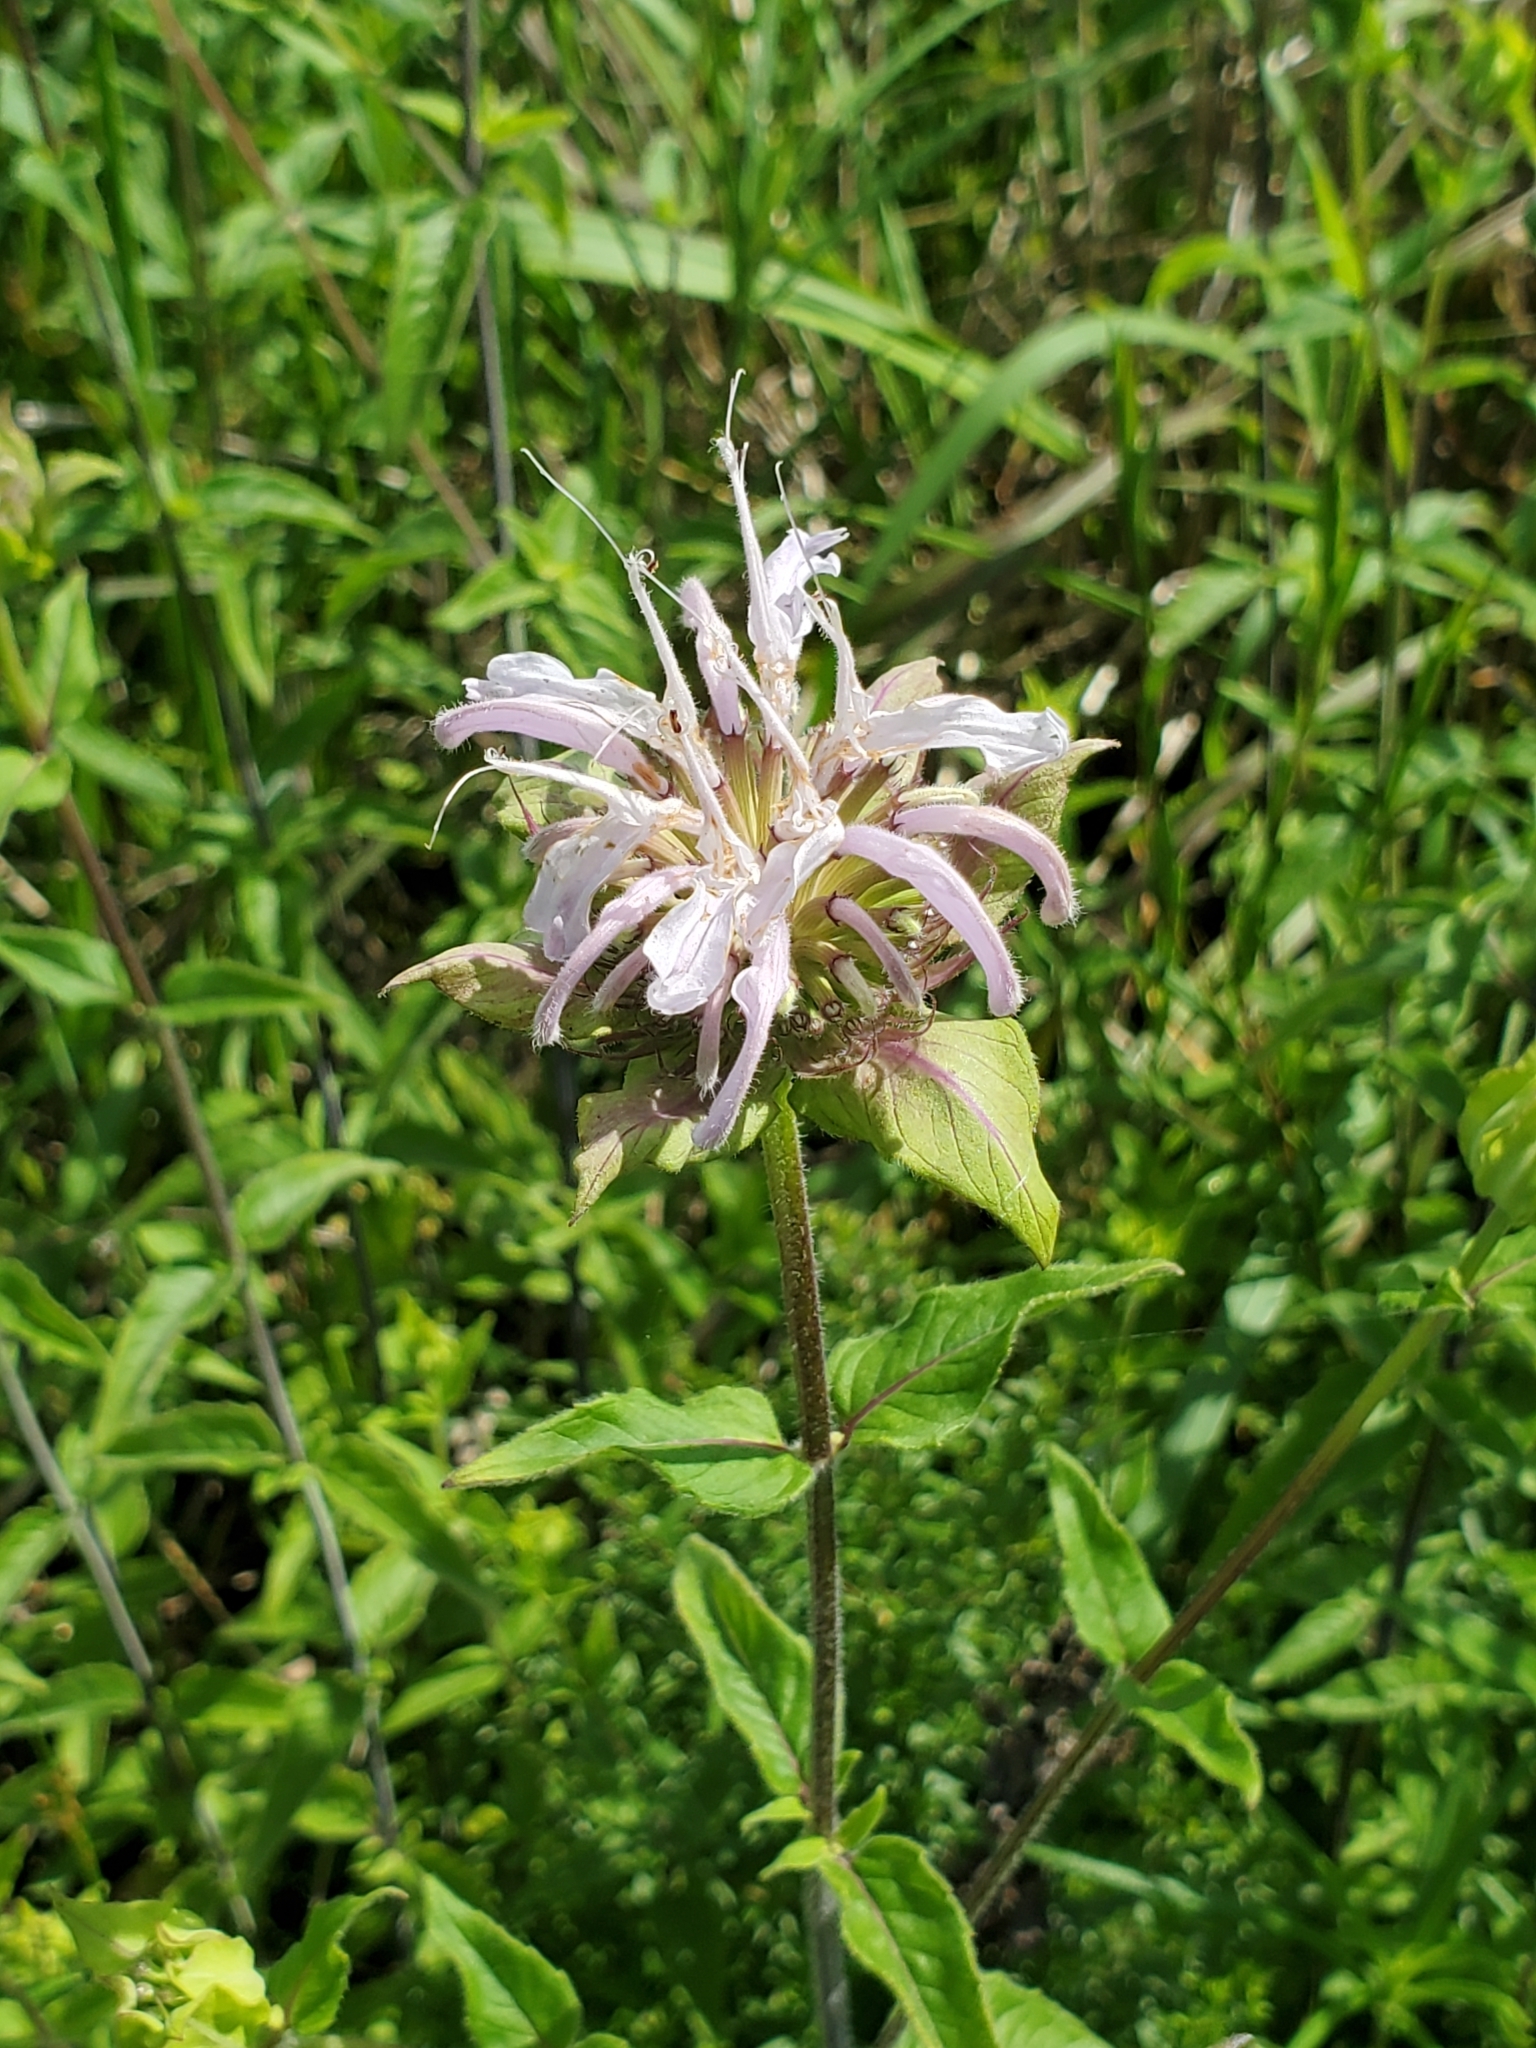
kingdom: Plantae
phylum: Tracheophyta
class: Magnoliopsida
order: Lamiales
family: Lamiaceae
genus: Monarda
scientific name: Monarda fistulosa
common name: Purple beebalm
